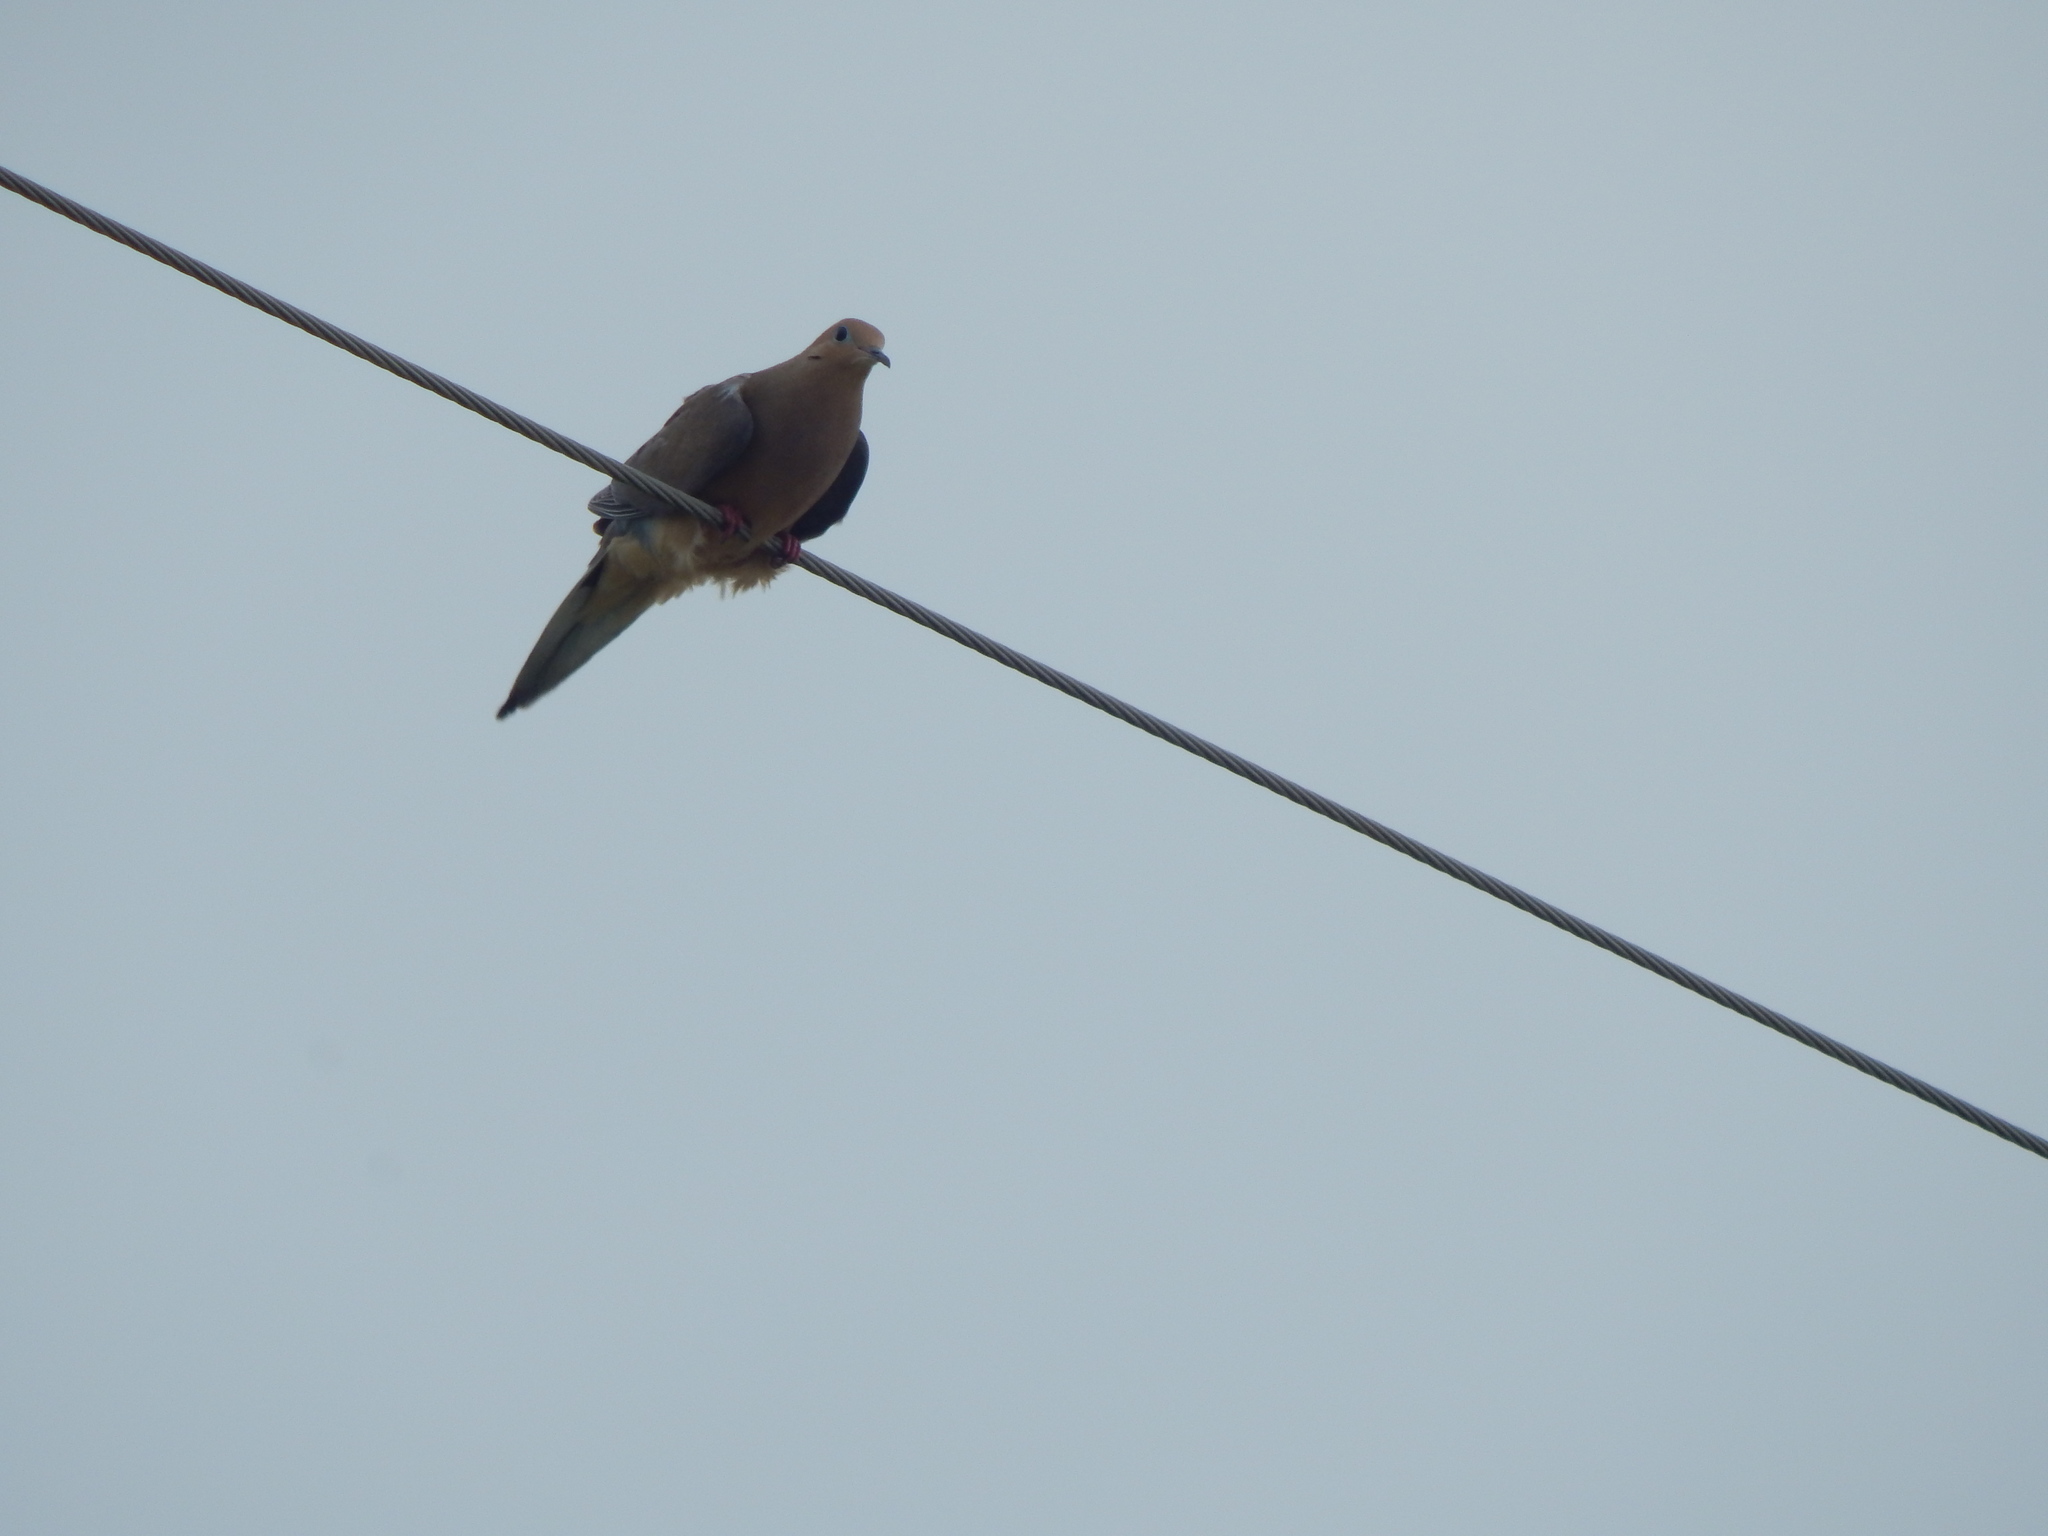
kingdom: Animalia
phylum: Chordata
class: Aves
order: Columbiformes
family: Columbidae
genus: Zenaida
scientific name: Zenaida macroura
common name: Mourning dove
